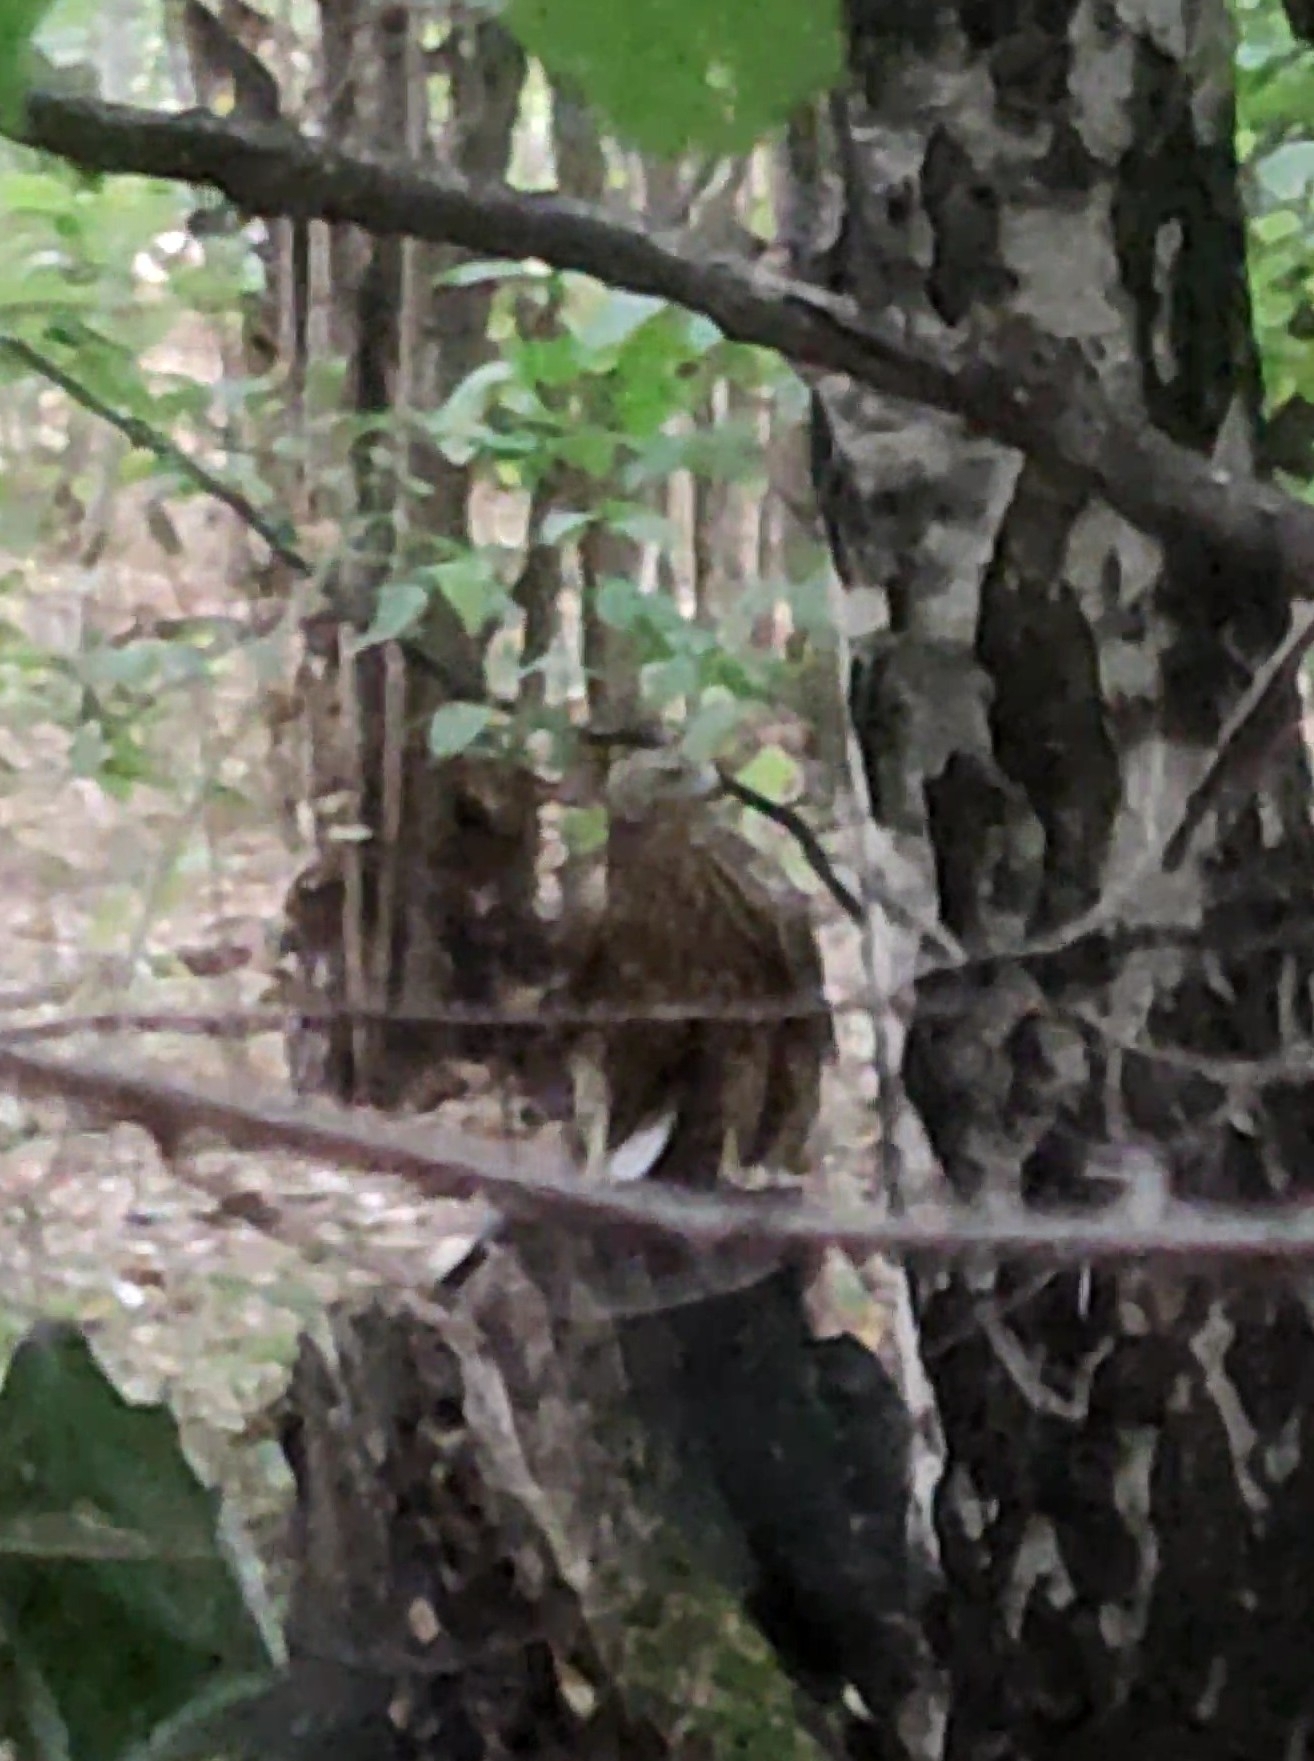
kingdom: Animalia
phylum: Chordata
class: Aves
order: Accipitriformes
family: Accipitridae
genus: Milvus
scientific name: Milvus migrans
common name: Black kite
